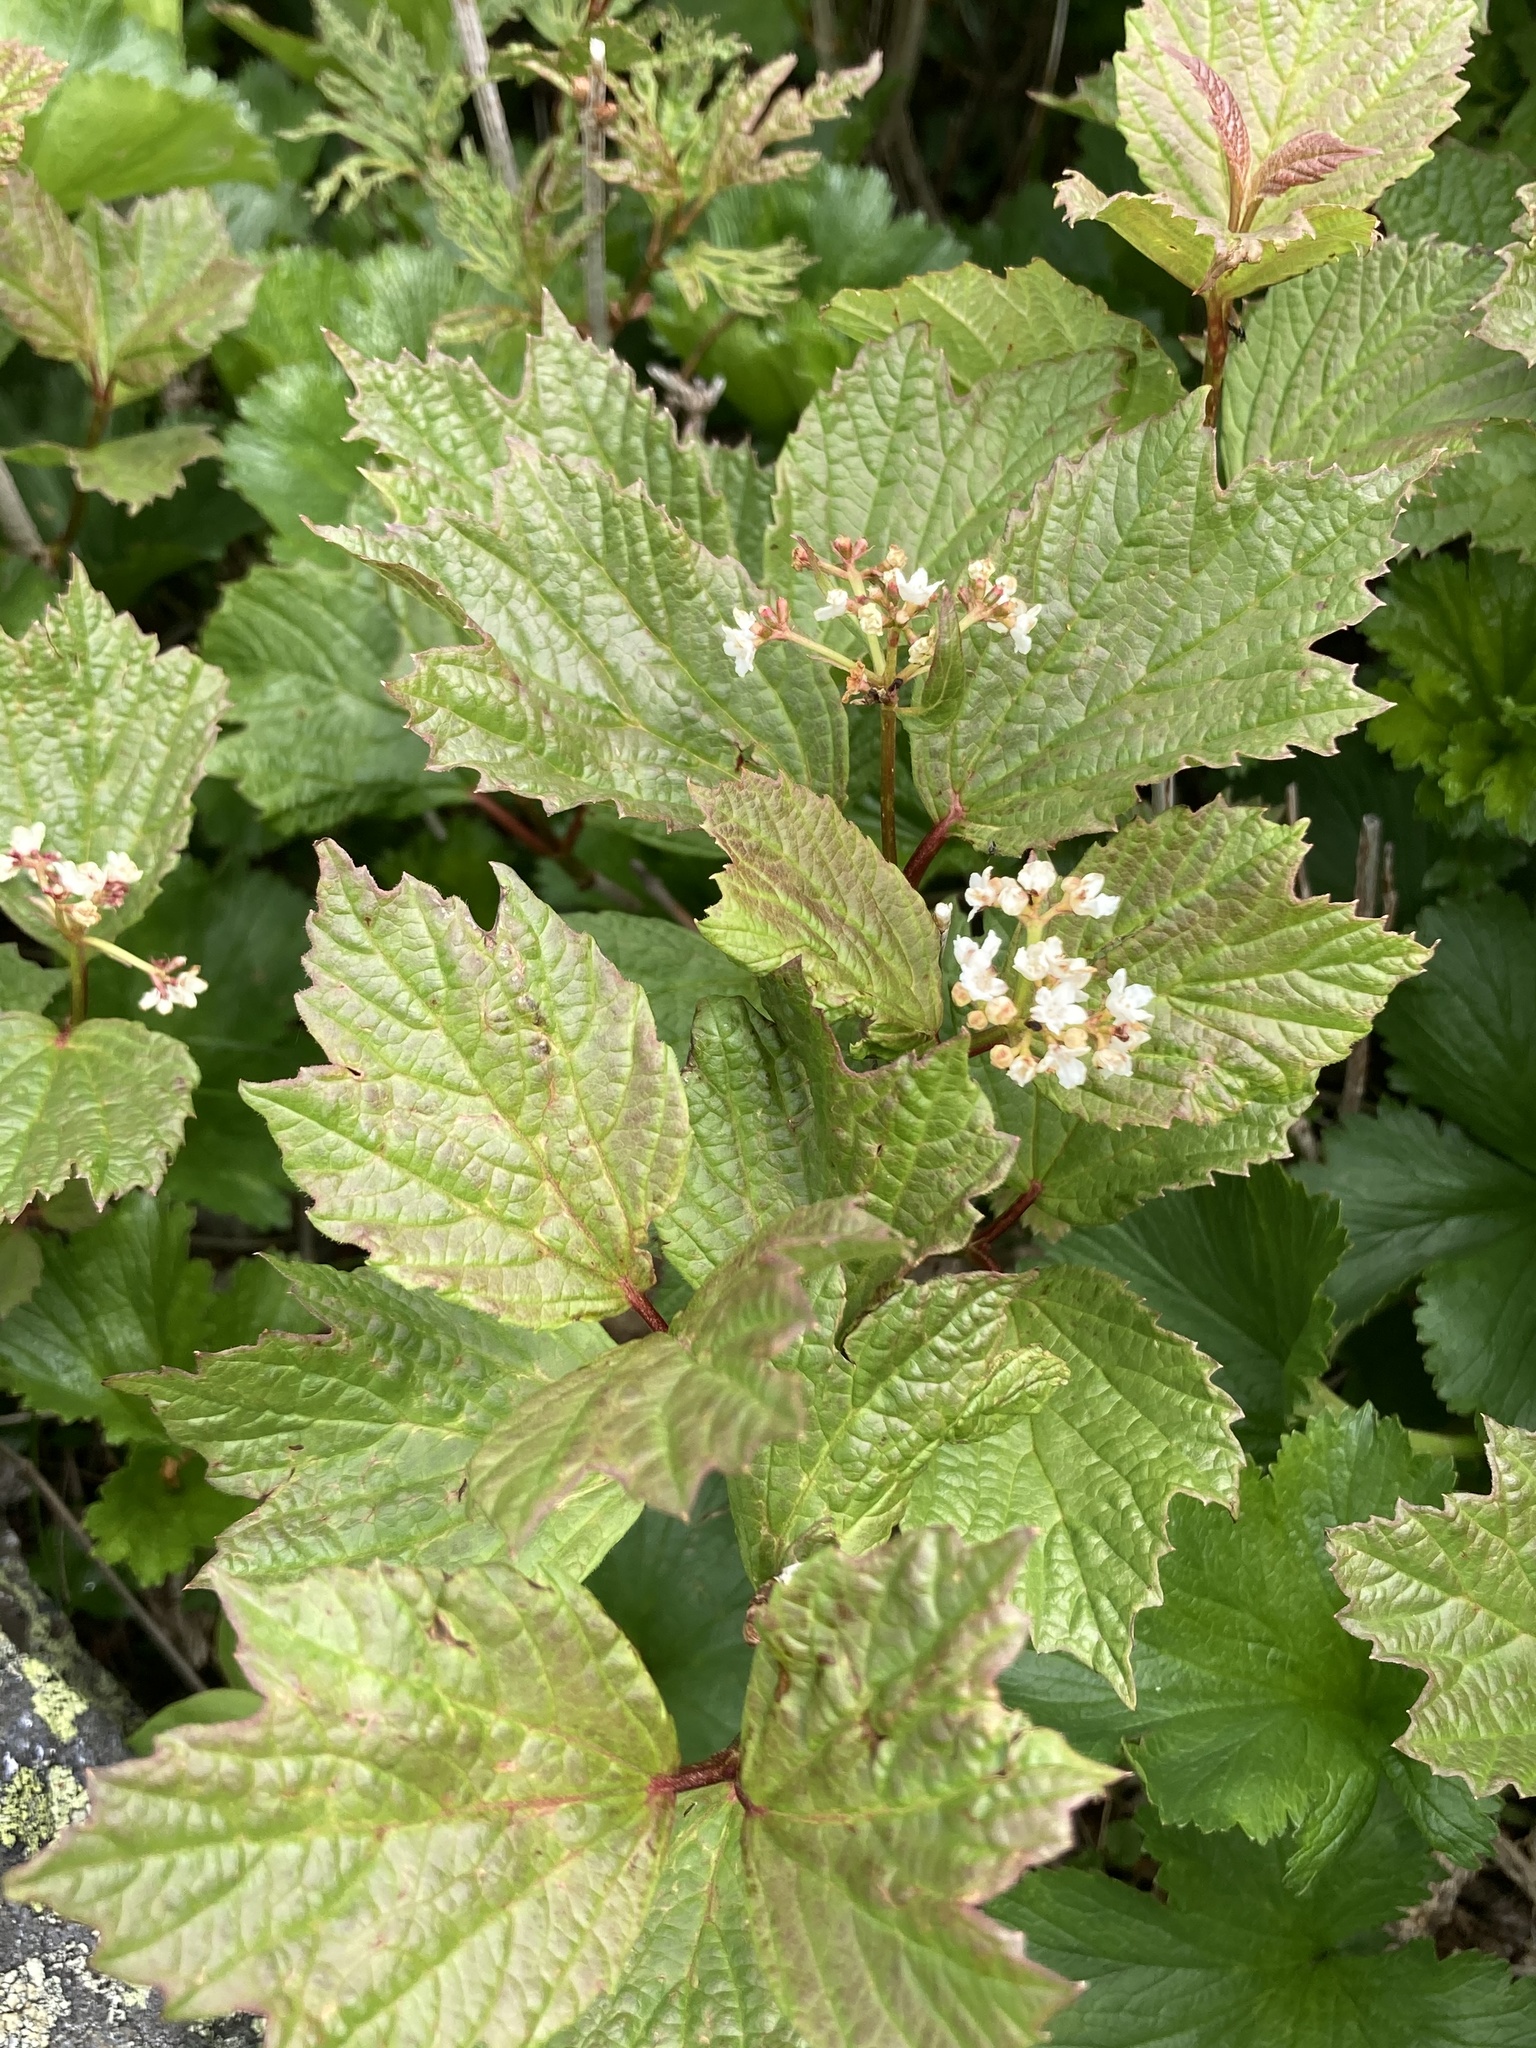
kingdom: Plantae
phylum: Tracheophyta
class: Magnoliopsida
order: Dipsacales
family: Viburnaceae
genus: Viburnum
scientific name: Viburnum edule
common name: Mooseberry
